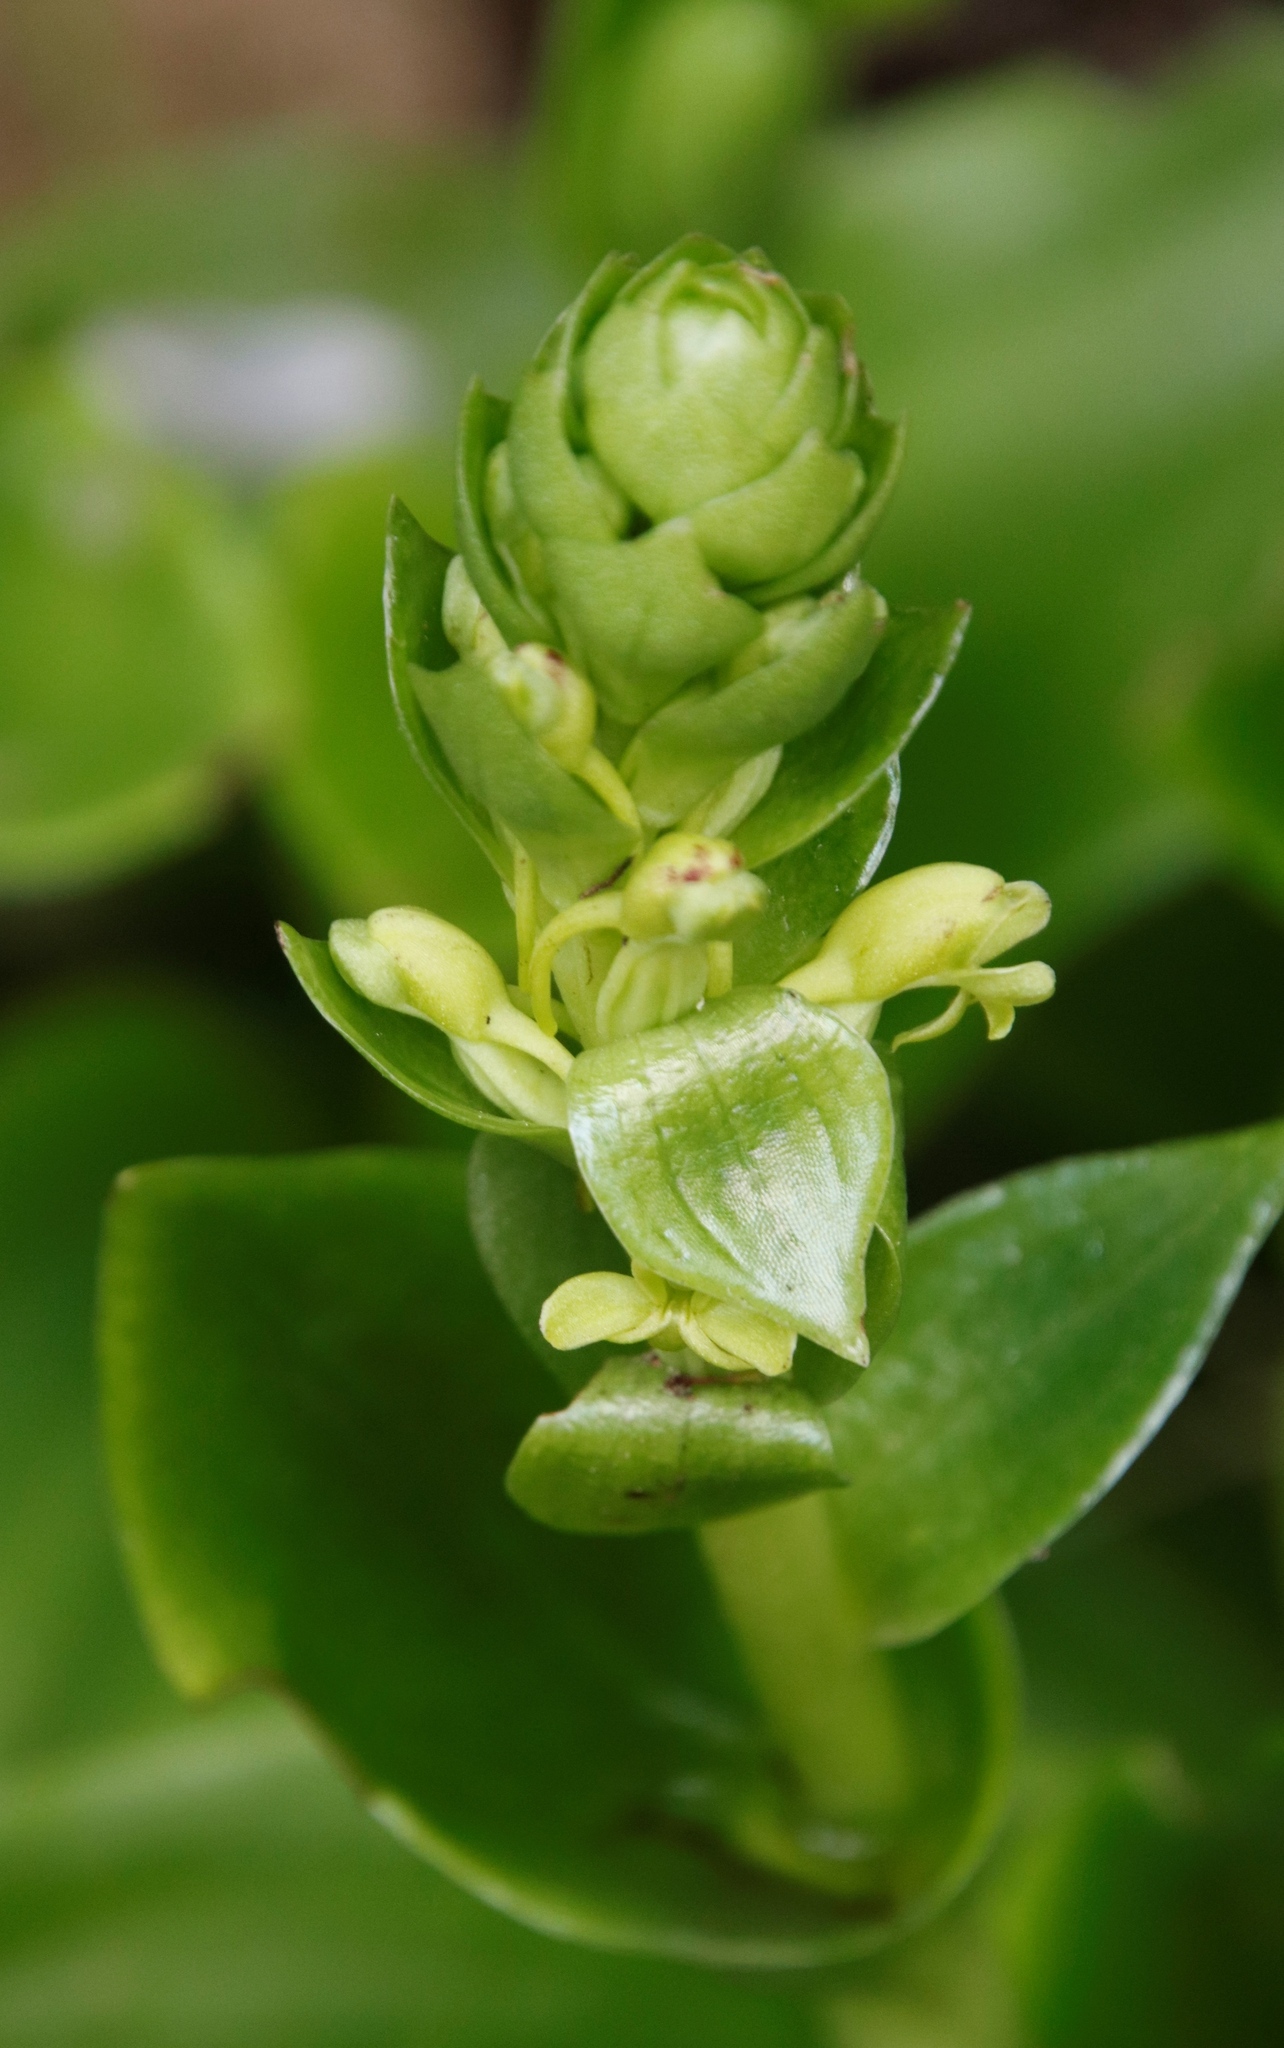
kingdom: Plantae
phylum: Tracheophyta
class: Liliopsida
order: Asparagales
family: Orchidaceae
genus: Satyrium
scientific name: Satyrium odorum
